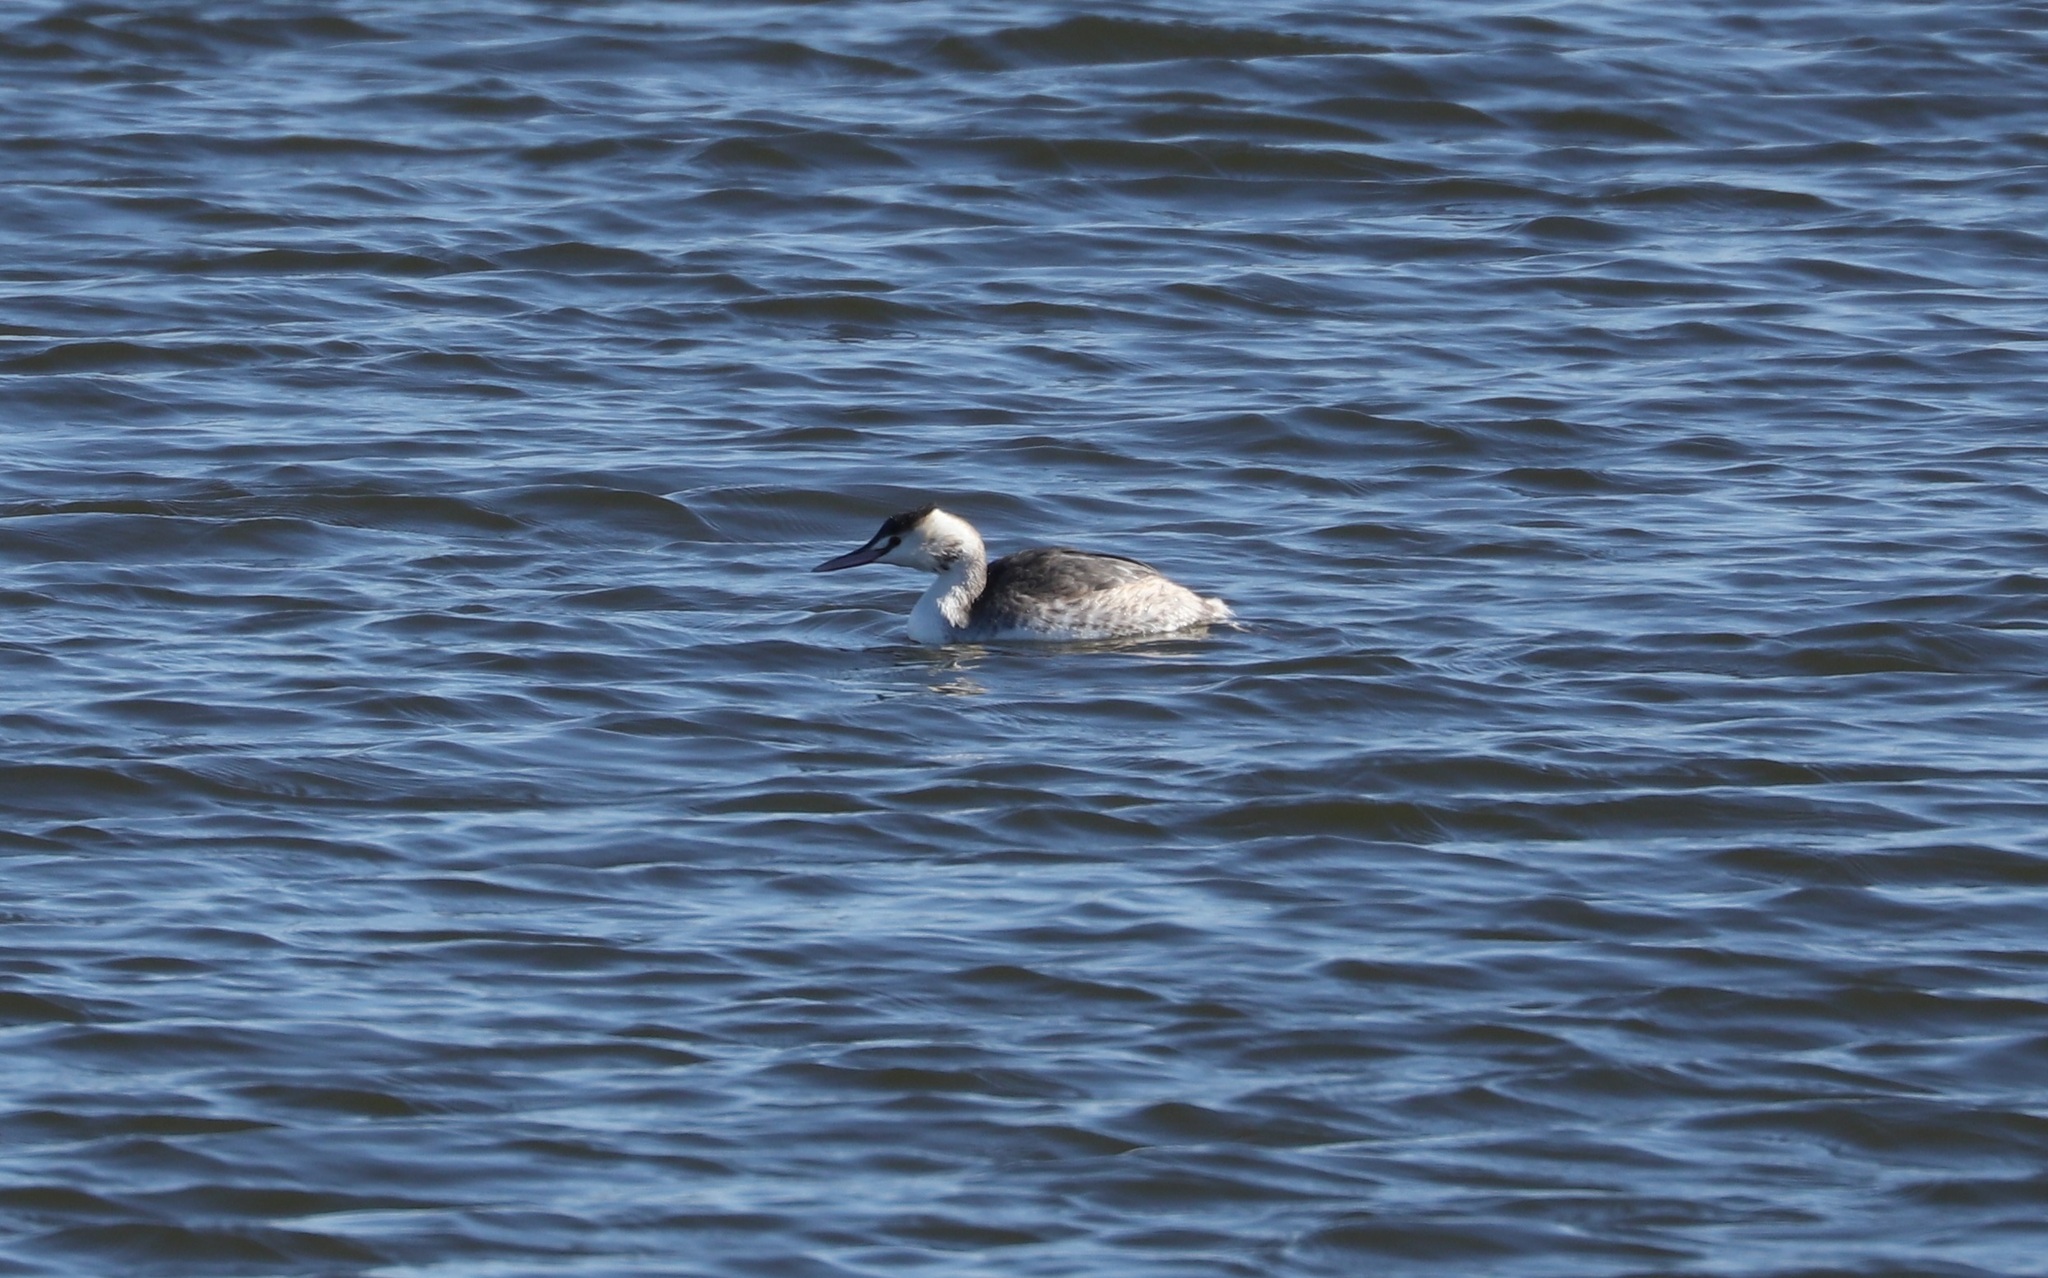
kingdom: Animalia
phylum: Chordata
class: Aves
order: Podicipediformes
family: Podicipedidae
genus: Podiceps
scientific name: Podiceps cristatus
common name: Great crested grebe
